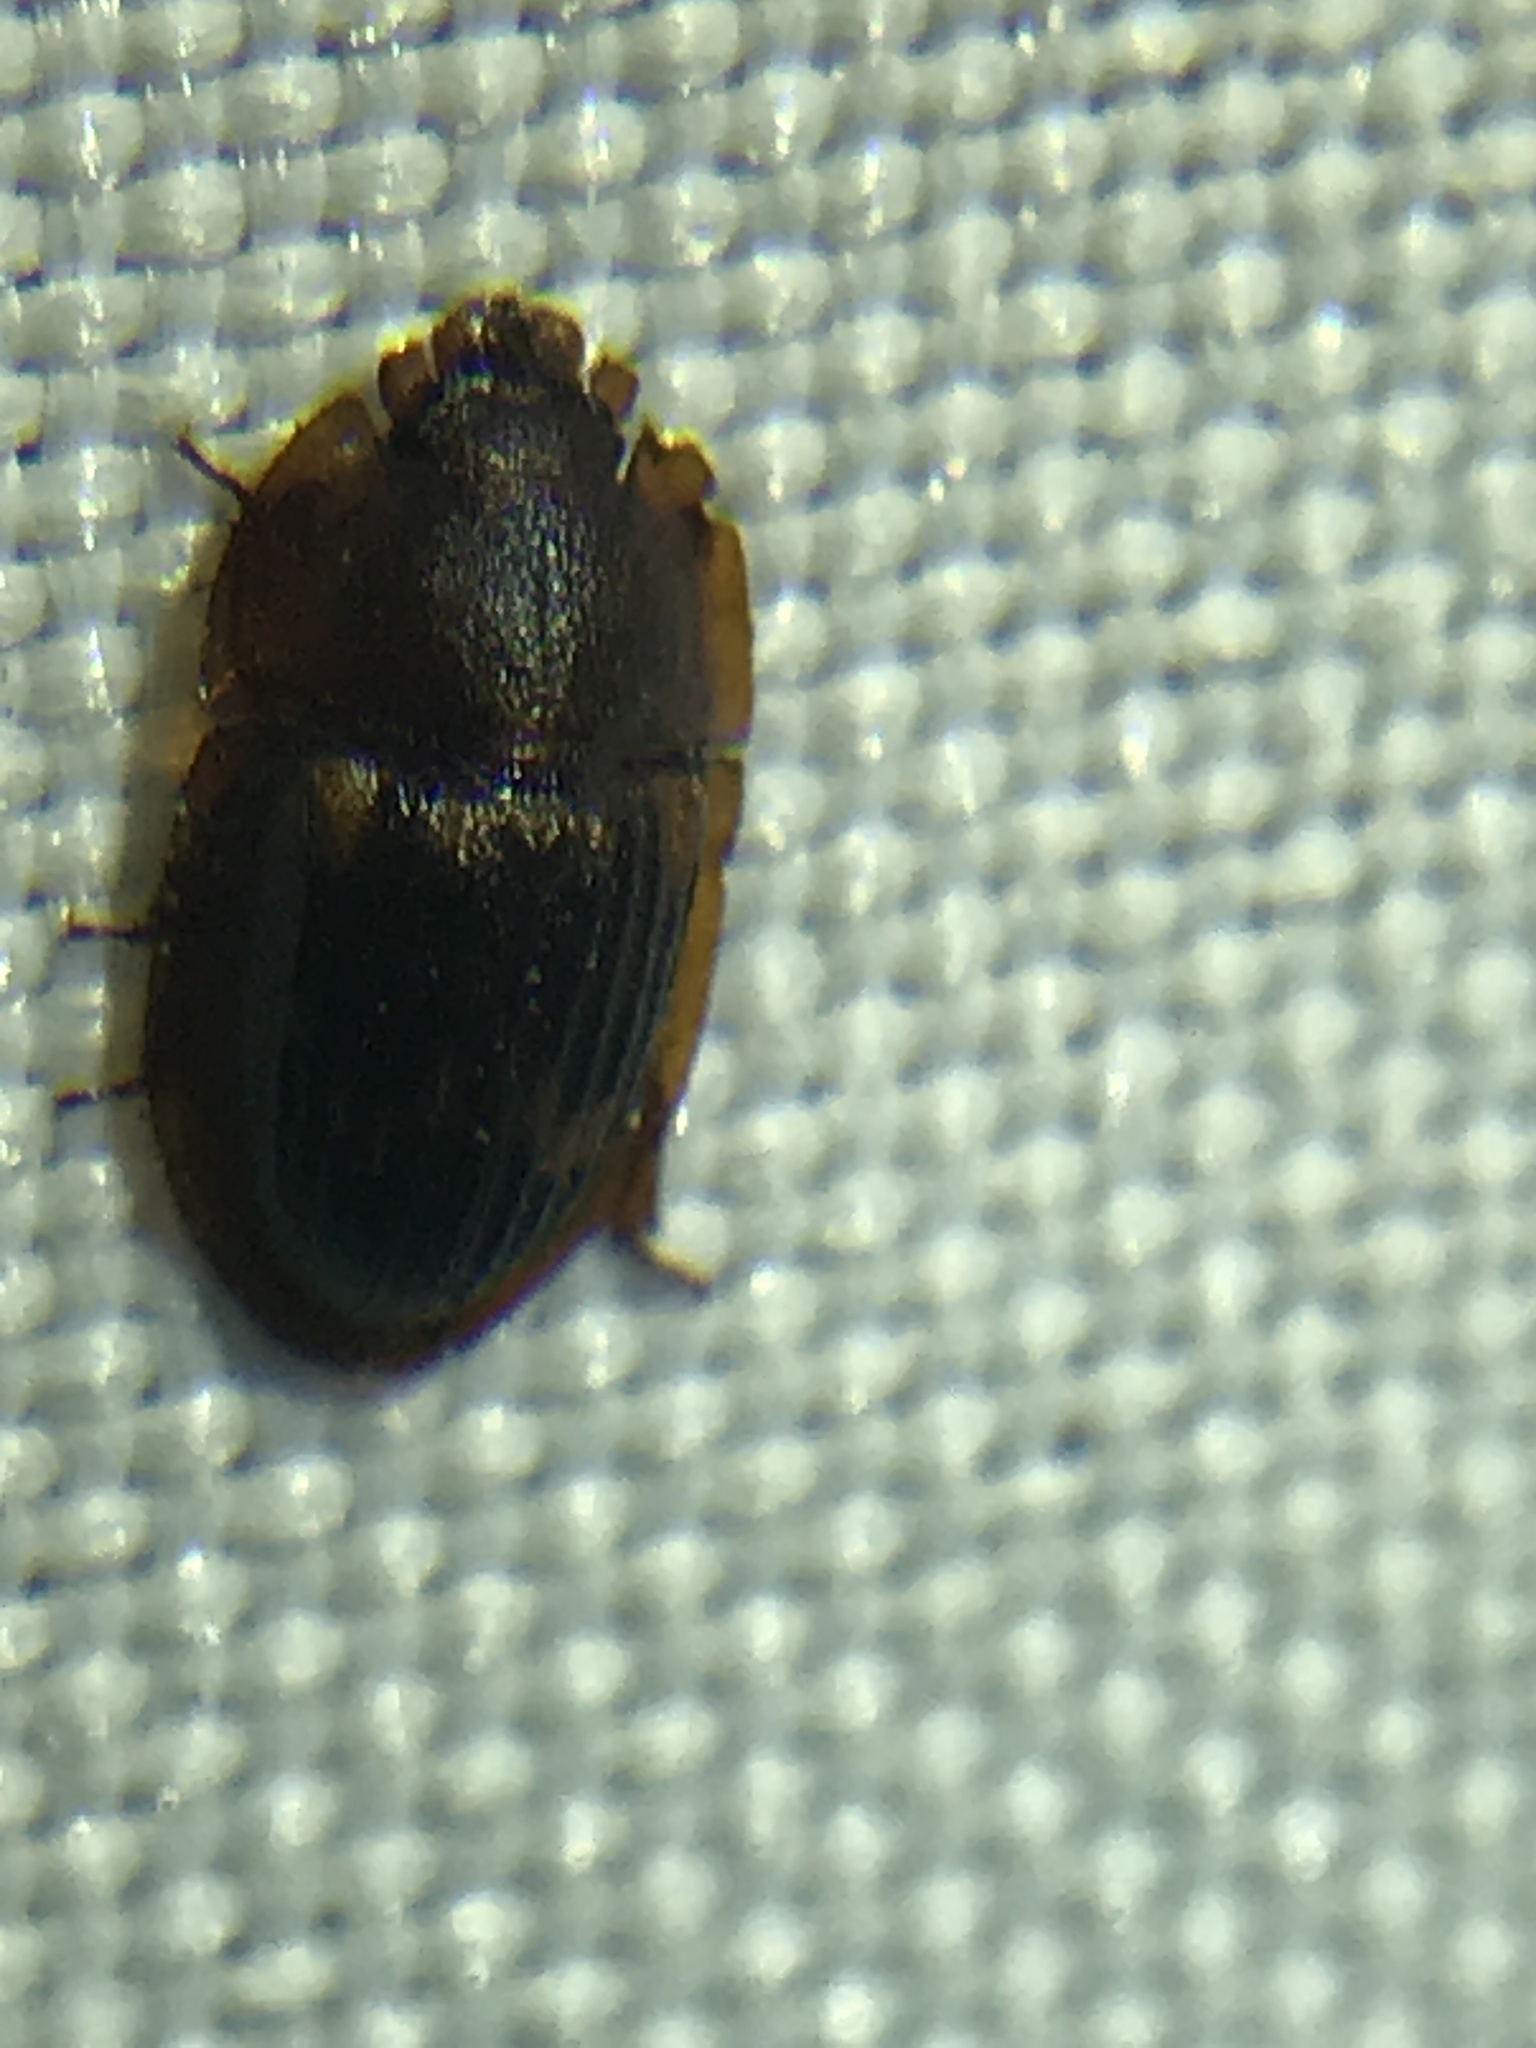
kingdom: Animalia
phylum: Arthropoda
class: Insecta
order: Coleoptera
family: Nitidulidae
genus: Amphotis
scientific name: Amphotis marginata
